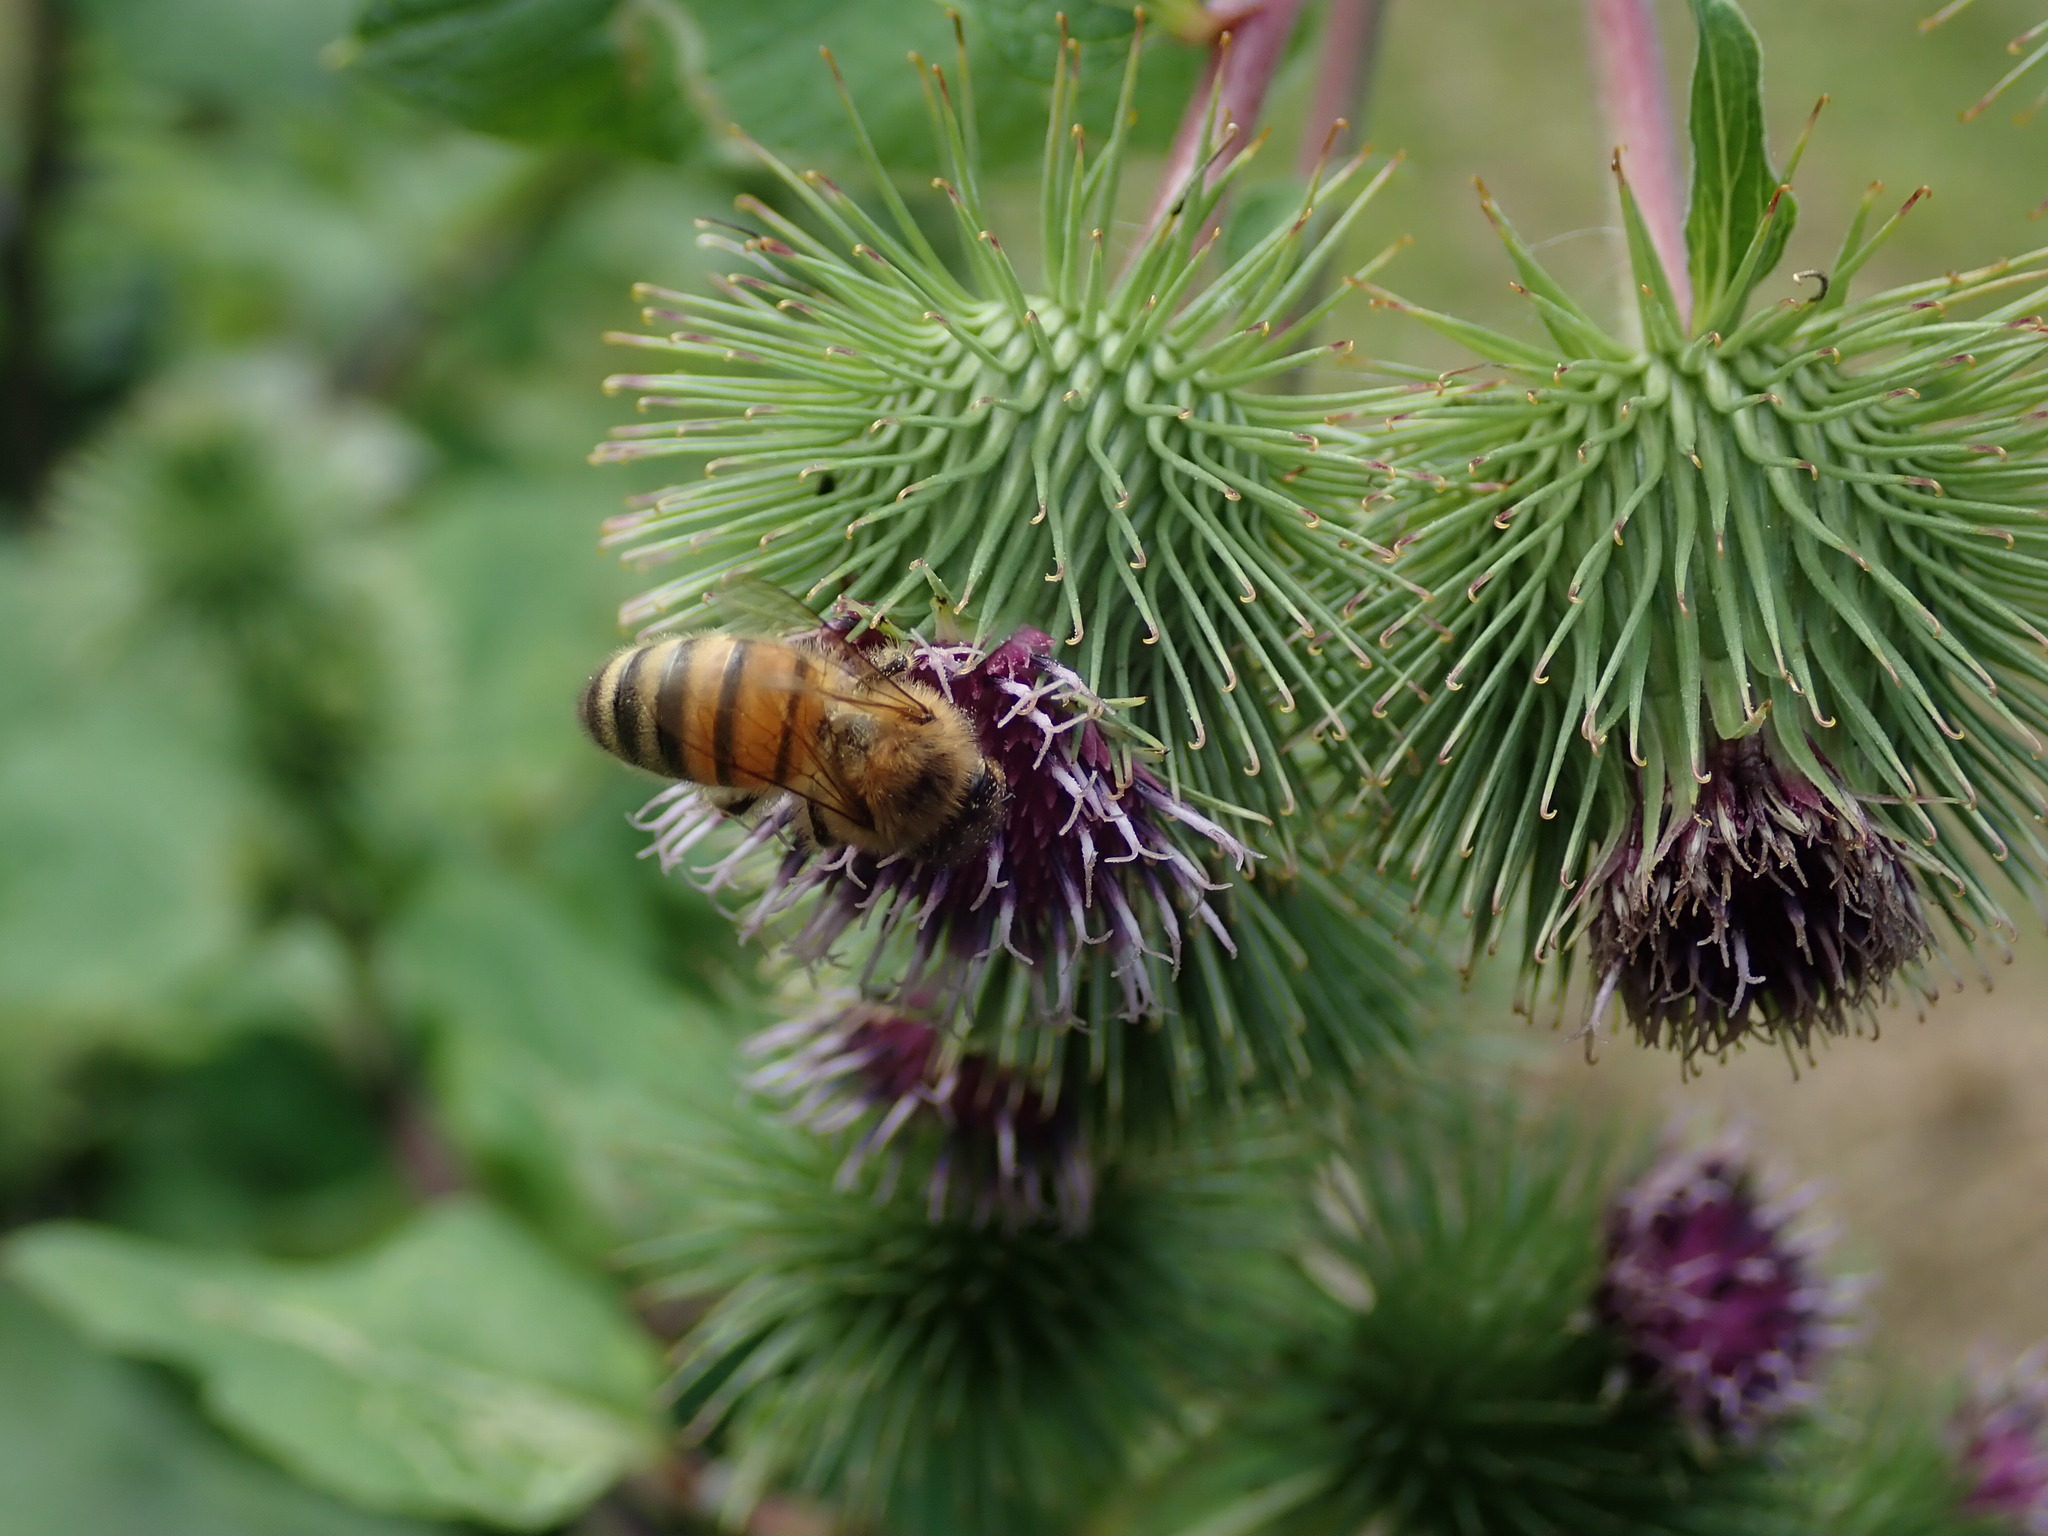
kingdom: Animalia
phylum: Arthropoda
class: Insecta
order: Hymenoptera
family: Apidae
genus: Apis
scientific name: Apis mellifera
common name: Honey bee
